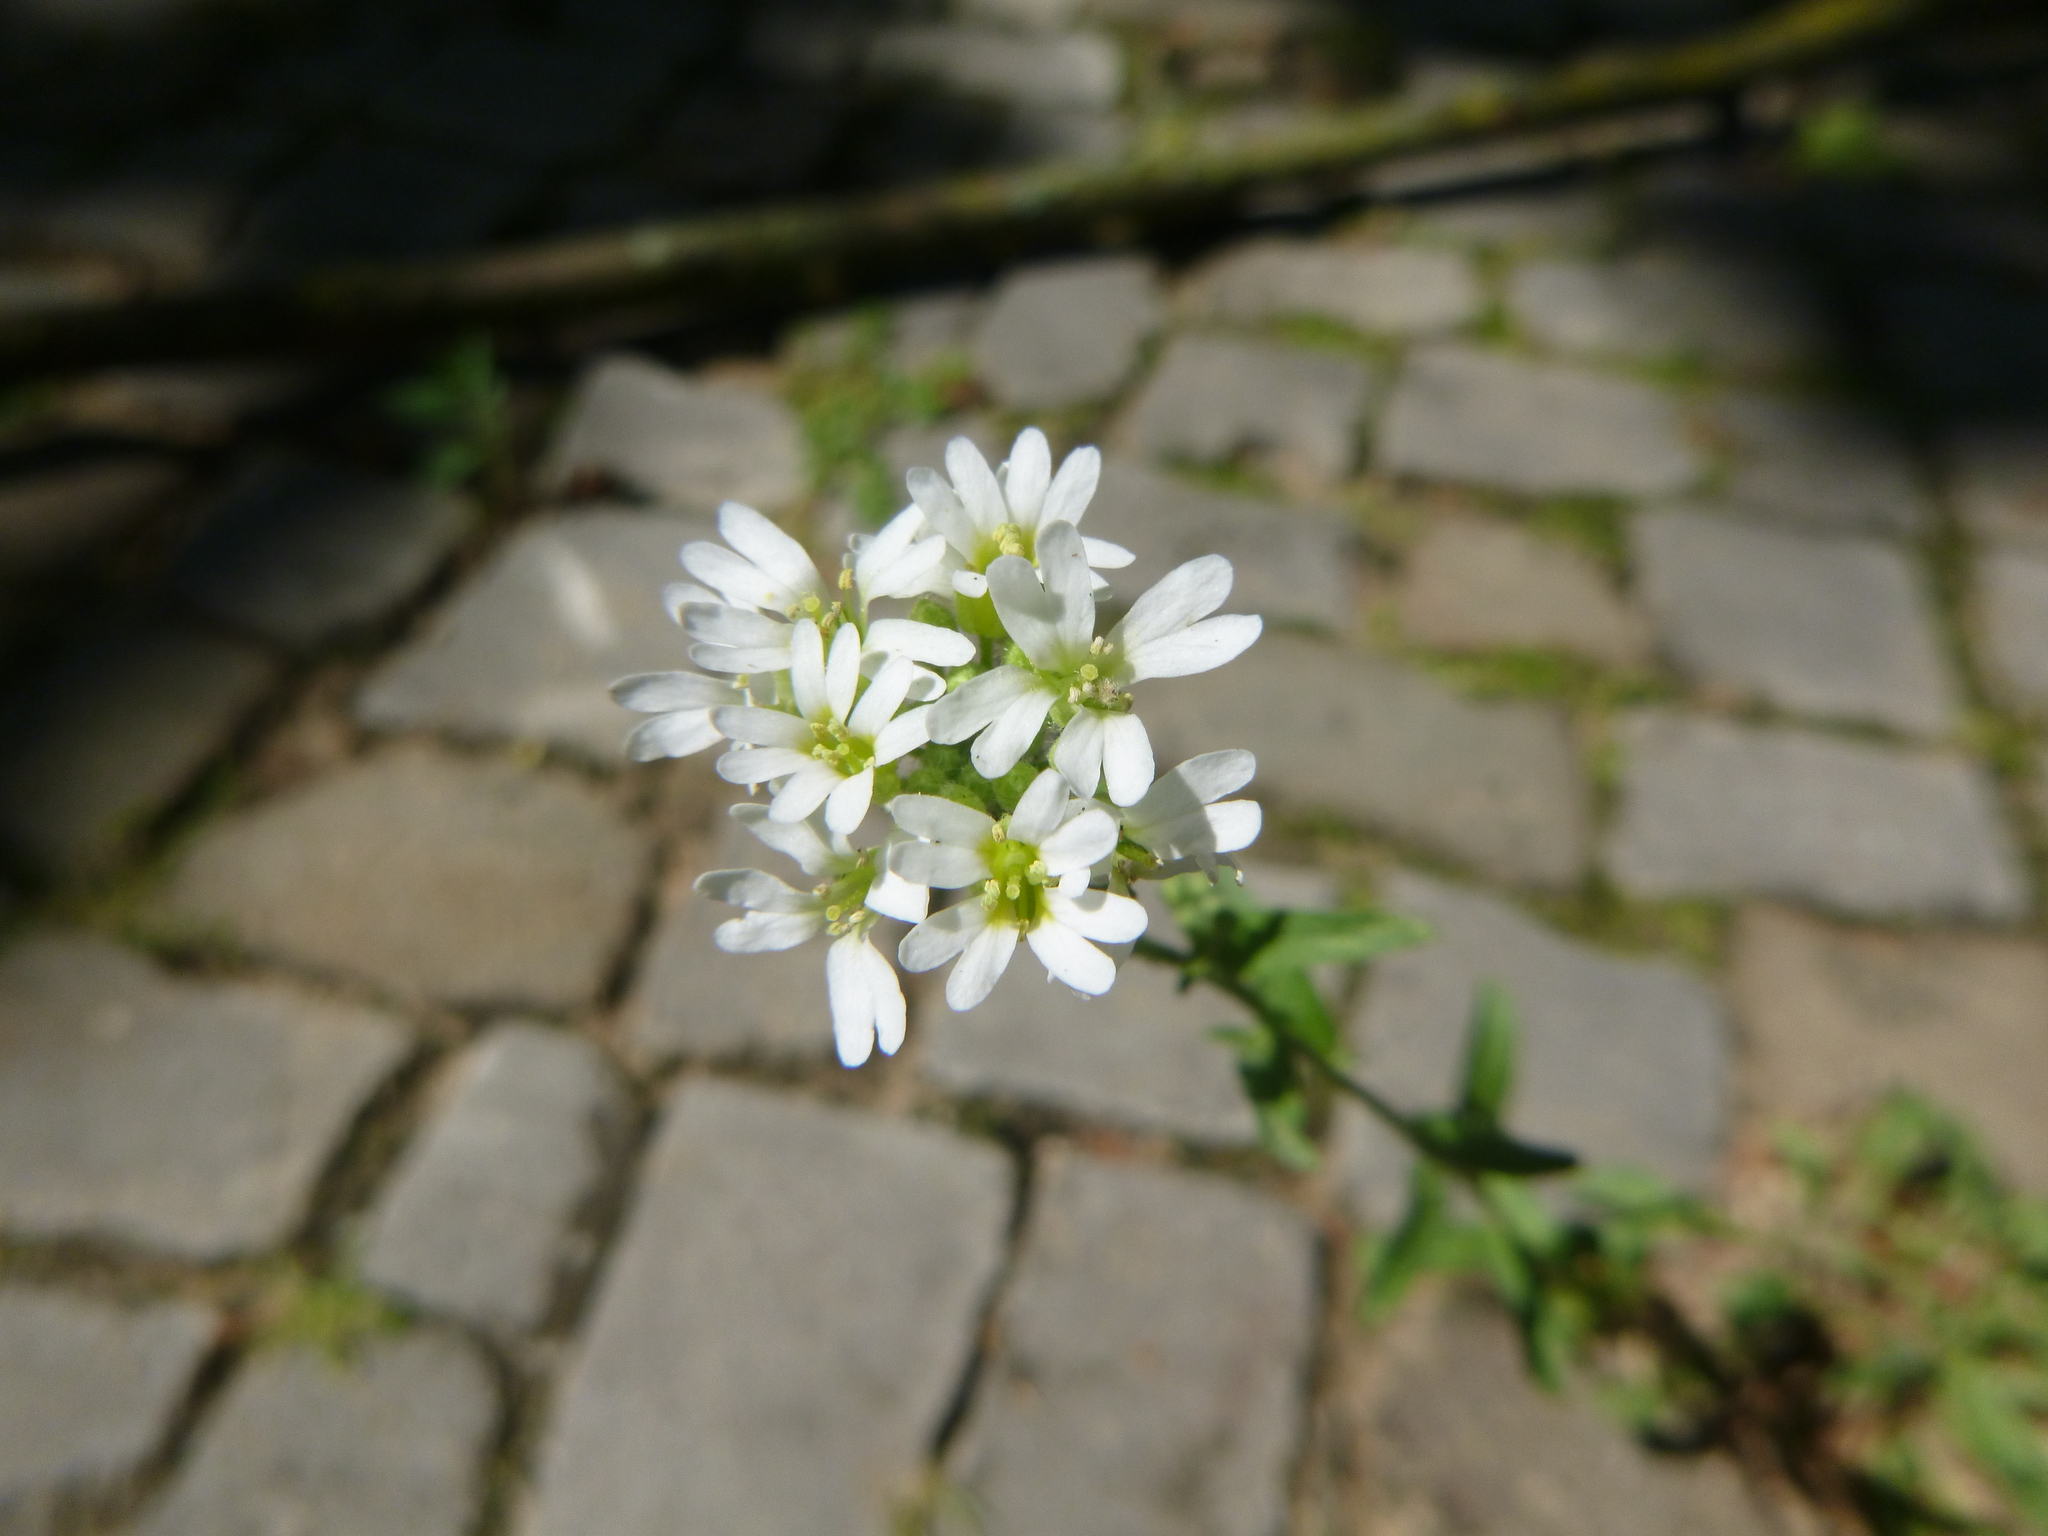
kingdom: Plantae
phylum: Tracheophyta
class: Magnoliopsida
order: Brassicales
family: Brassicaceae
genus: Berteroa
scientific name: Berteroa incana
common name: Hoary alison
